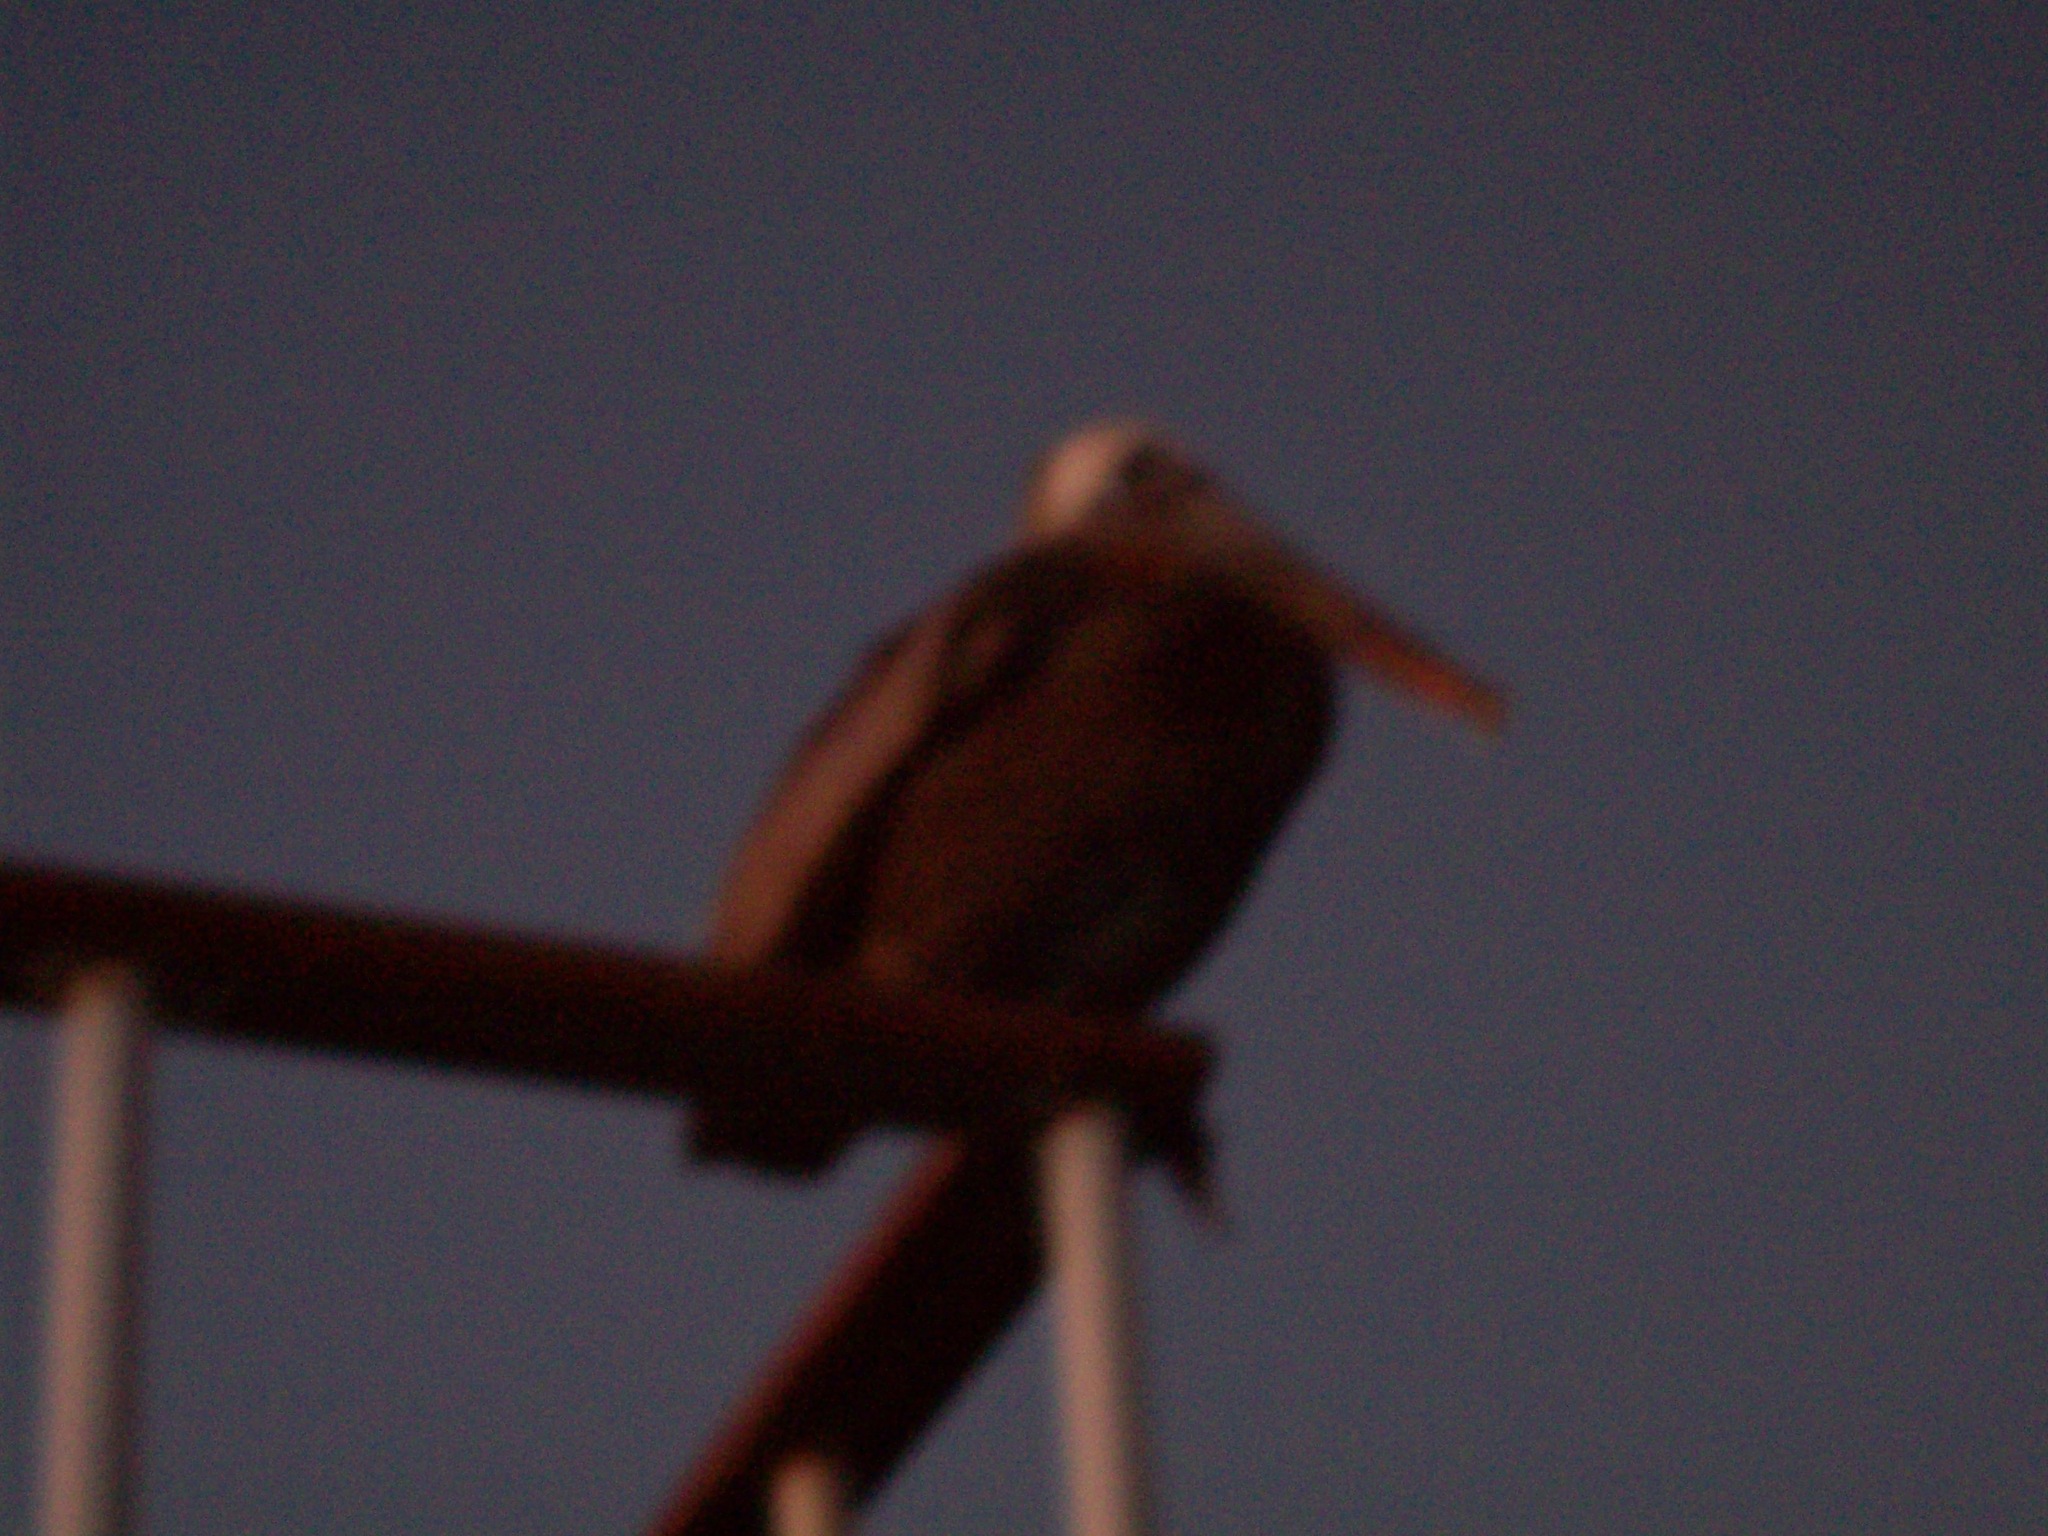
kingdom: Animalia
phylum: Chordata
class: Aves
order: Pelecaniformes
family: Pelecanidae
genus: Pelecanus
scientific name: Pelecanus occidentalis
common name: Brown pelican
